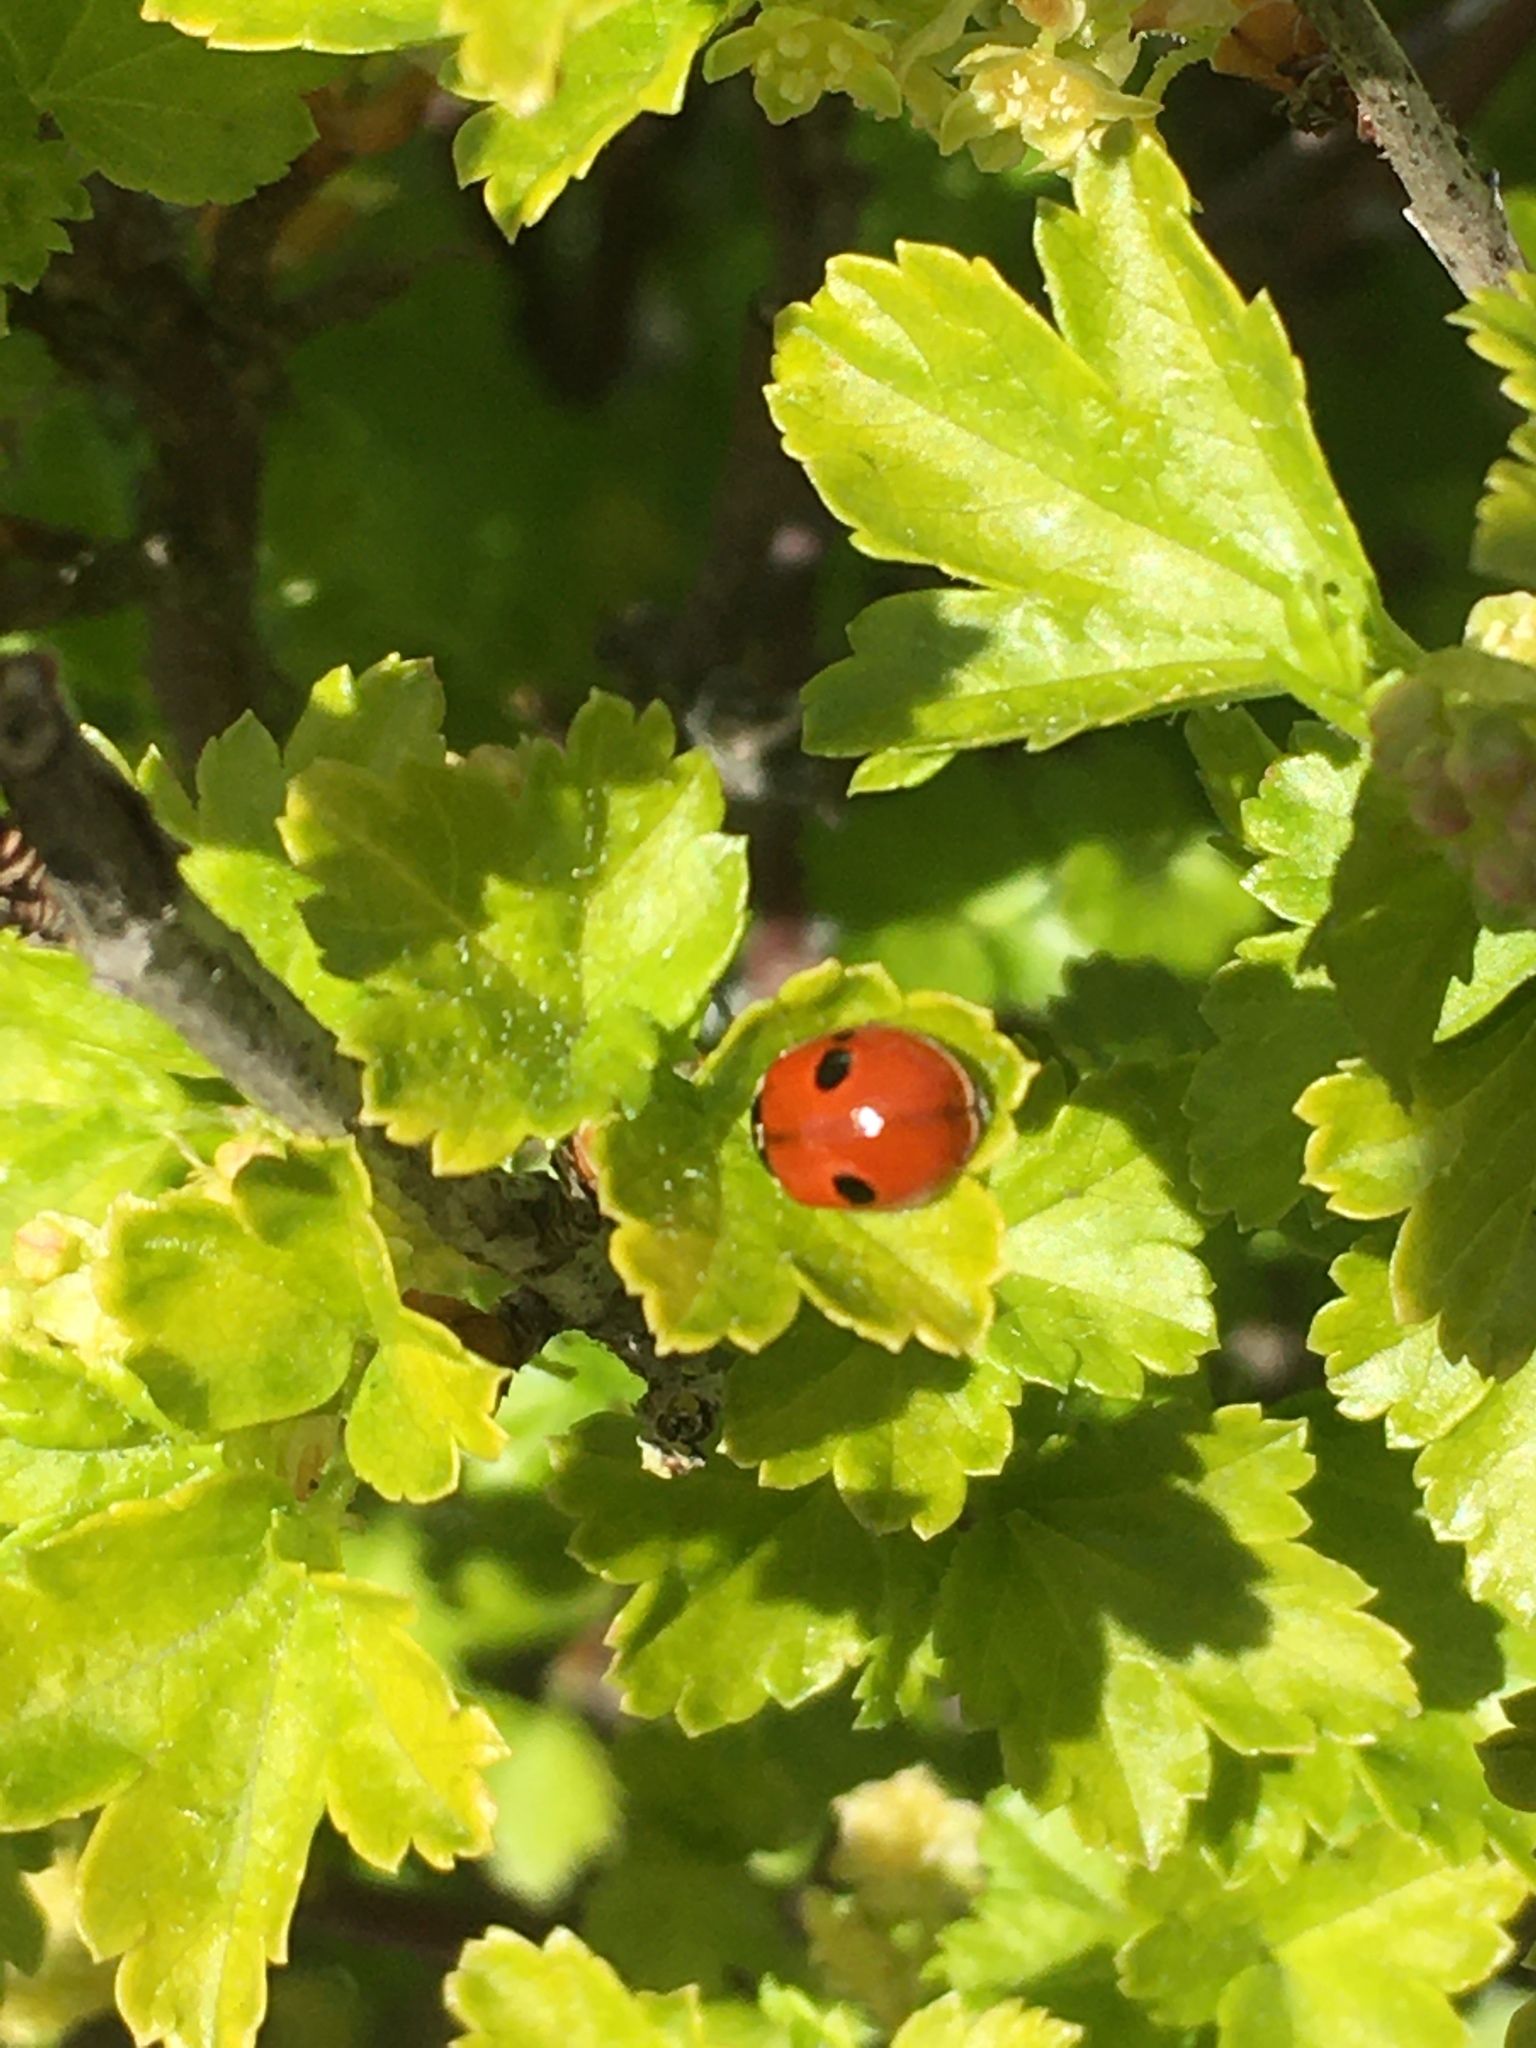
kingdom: Animalia
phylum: Arthropoda
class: Insecta
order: Coleoptera
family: Coccinellidae
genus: Adalia
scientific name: Adalia bipunctata
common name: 2-spot ladybird
